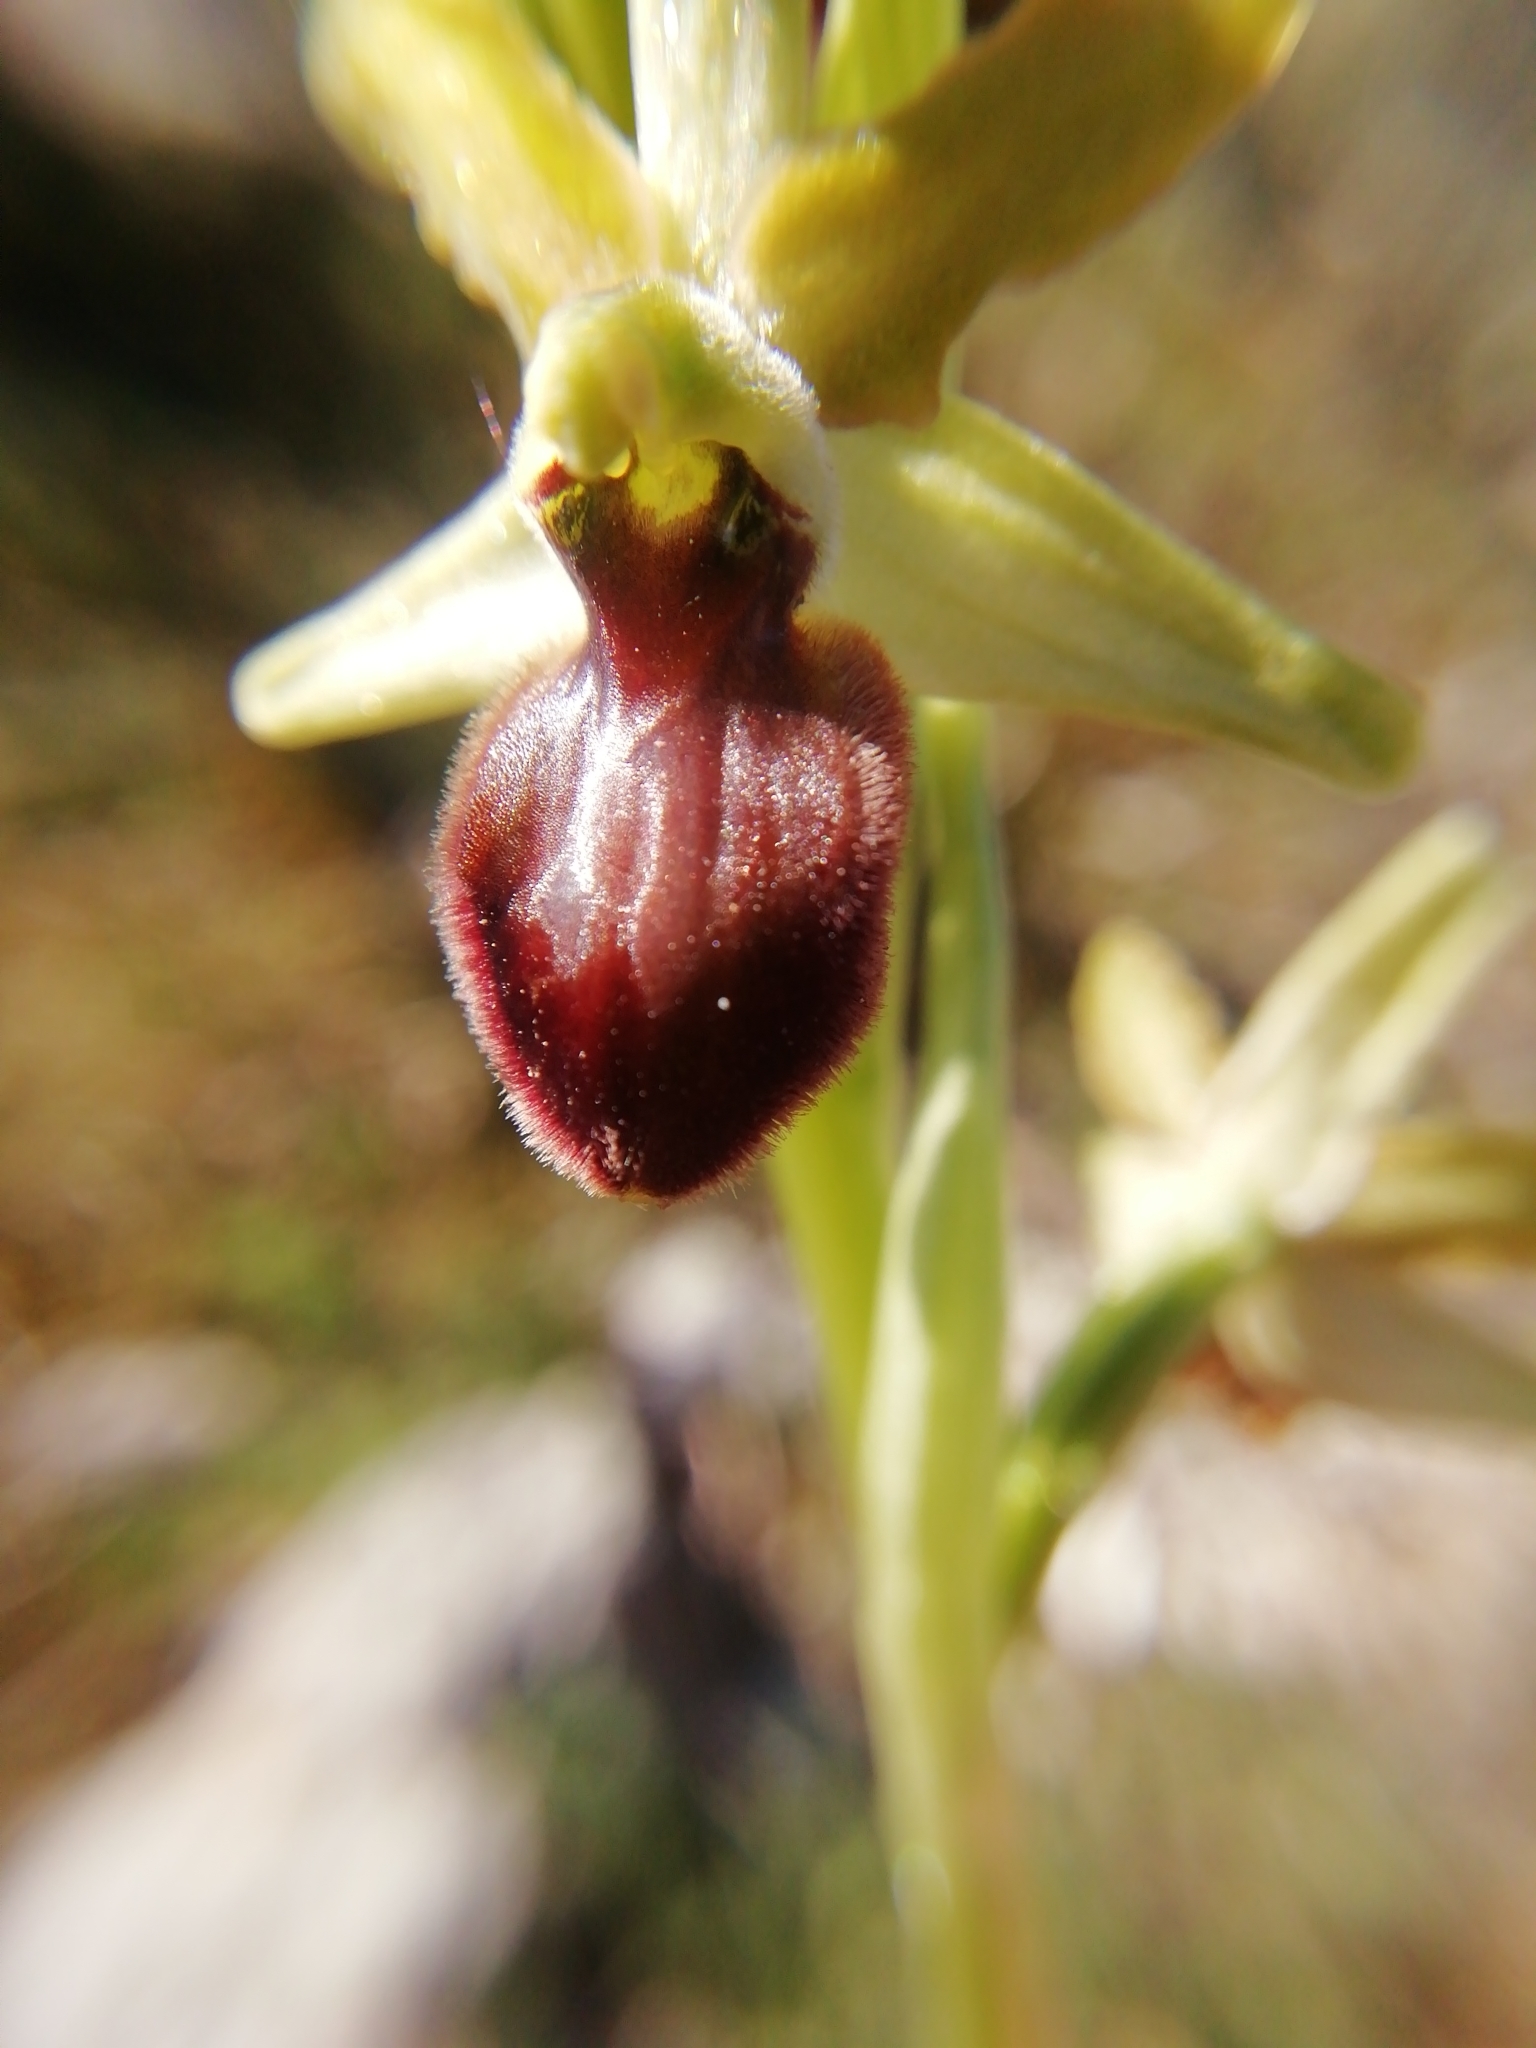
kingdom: Plantae
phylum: Tracheophyta
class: Liliopsida
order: Asparagales
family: Orchidaceae
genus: Ophrys
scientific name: Ophrys arachnitiformis
